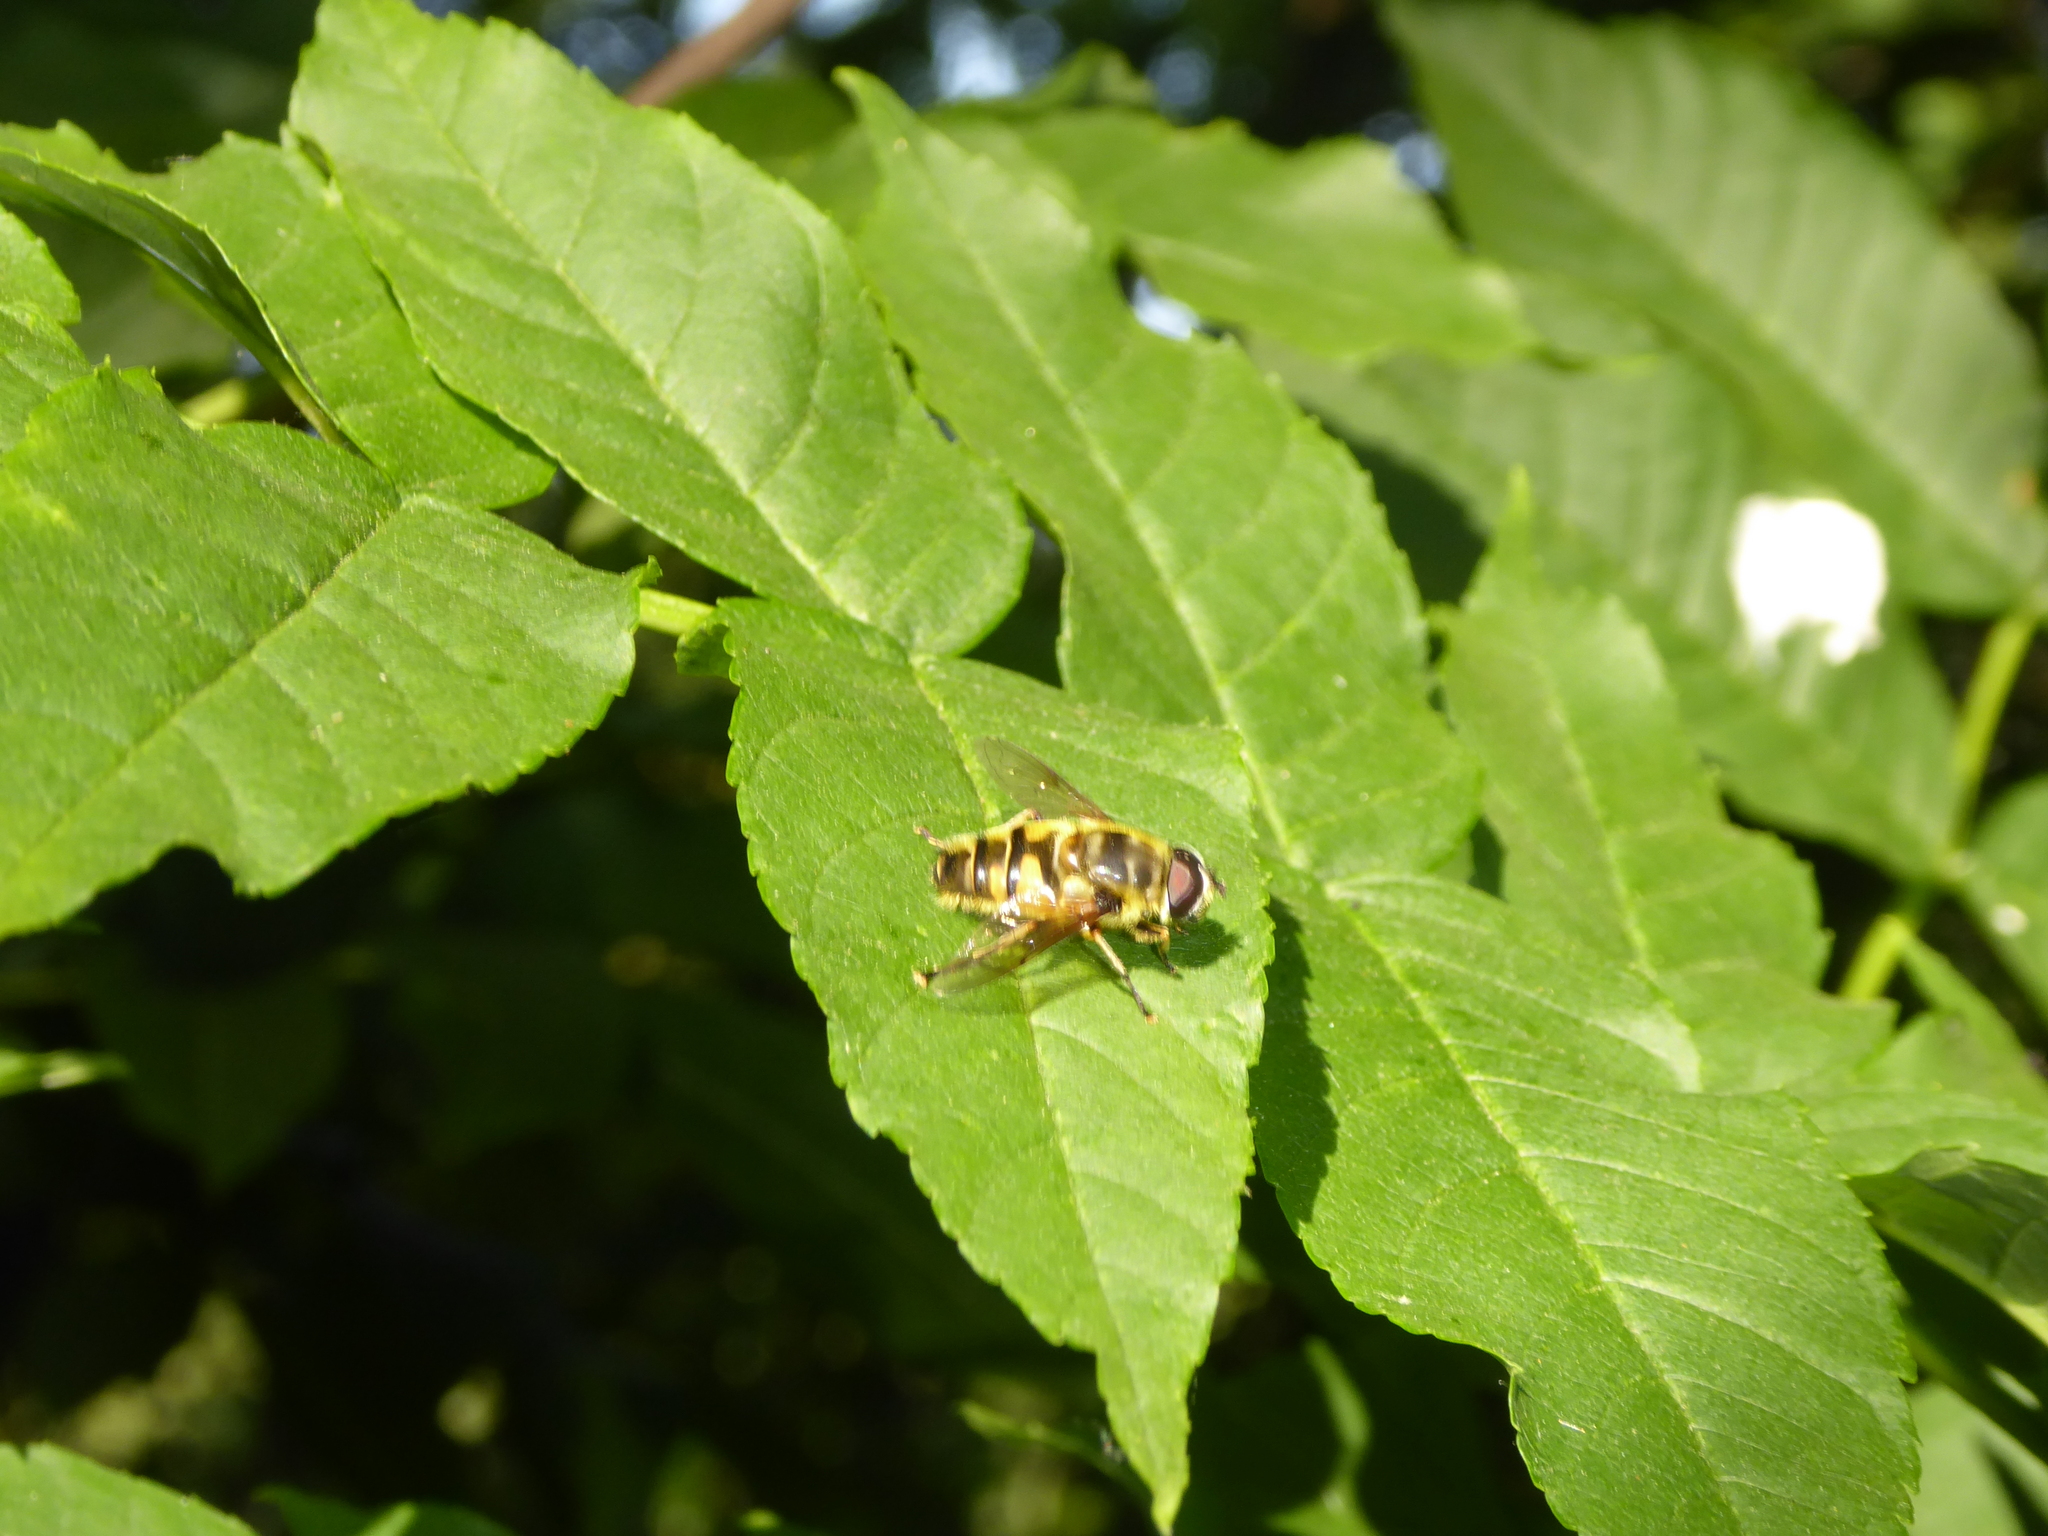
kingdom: Animalia
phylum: Arthropoda
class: Insecta
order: Diptera
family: Syrphidae
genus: Myathropa
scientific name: Myathropa florea
